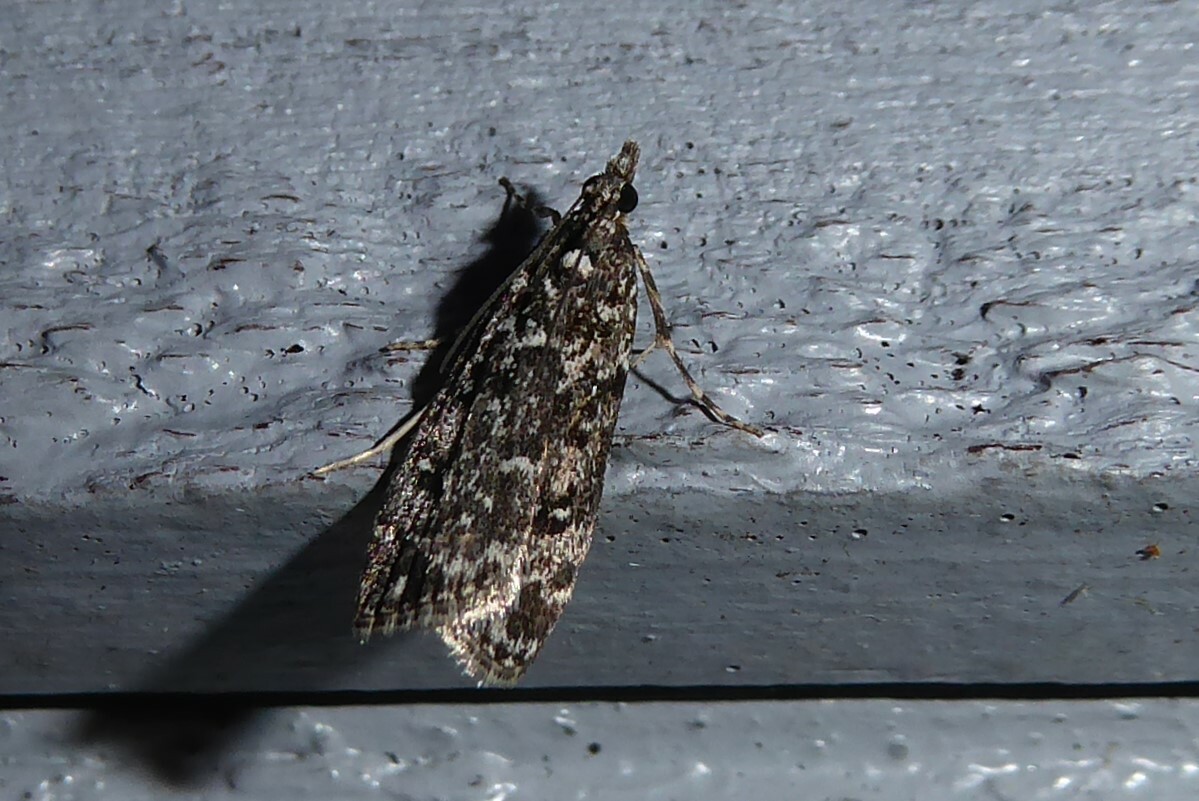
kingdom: Animalia
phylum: Arthropoda
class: Insecta
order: Lepidoptera
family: Crambidae
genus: Eudonia
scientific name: Eudonia philerga
